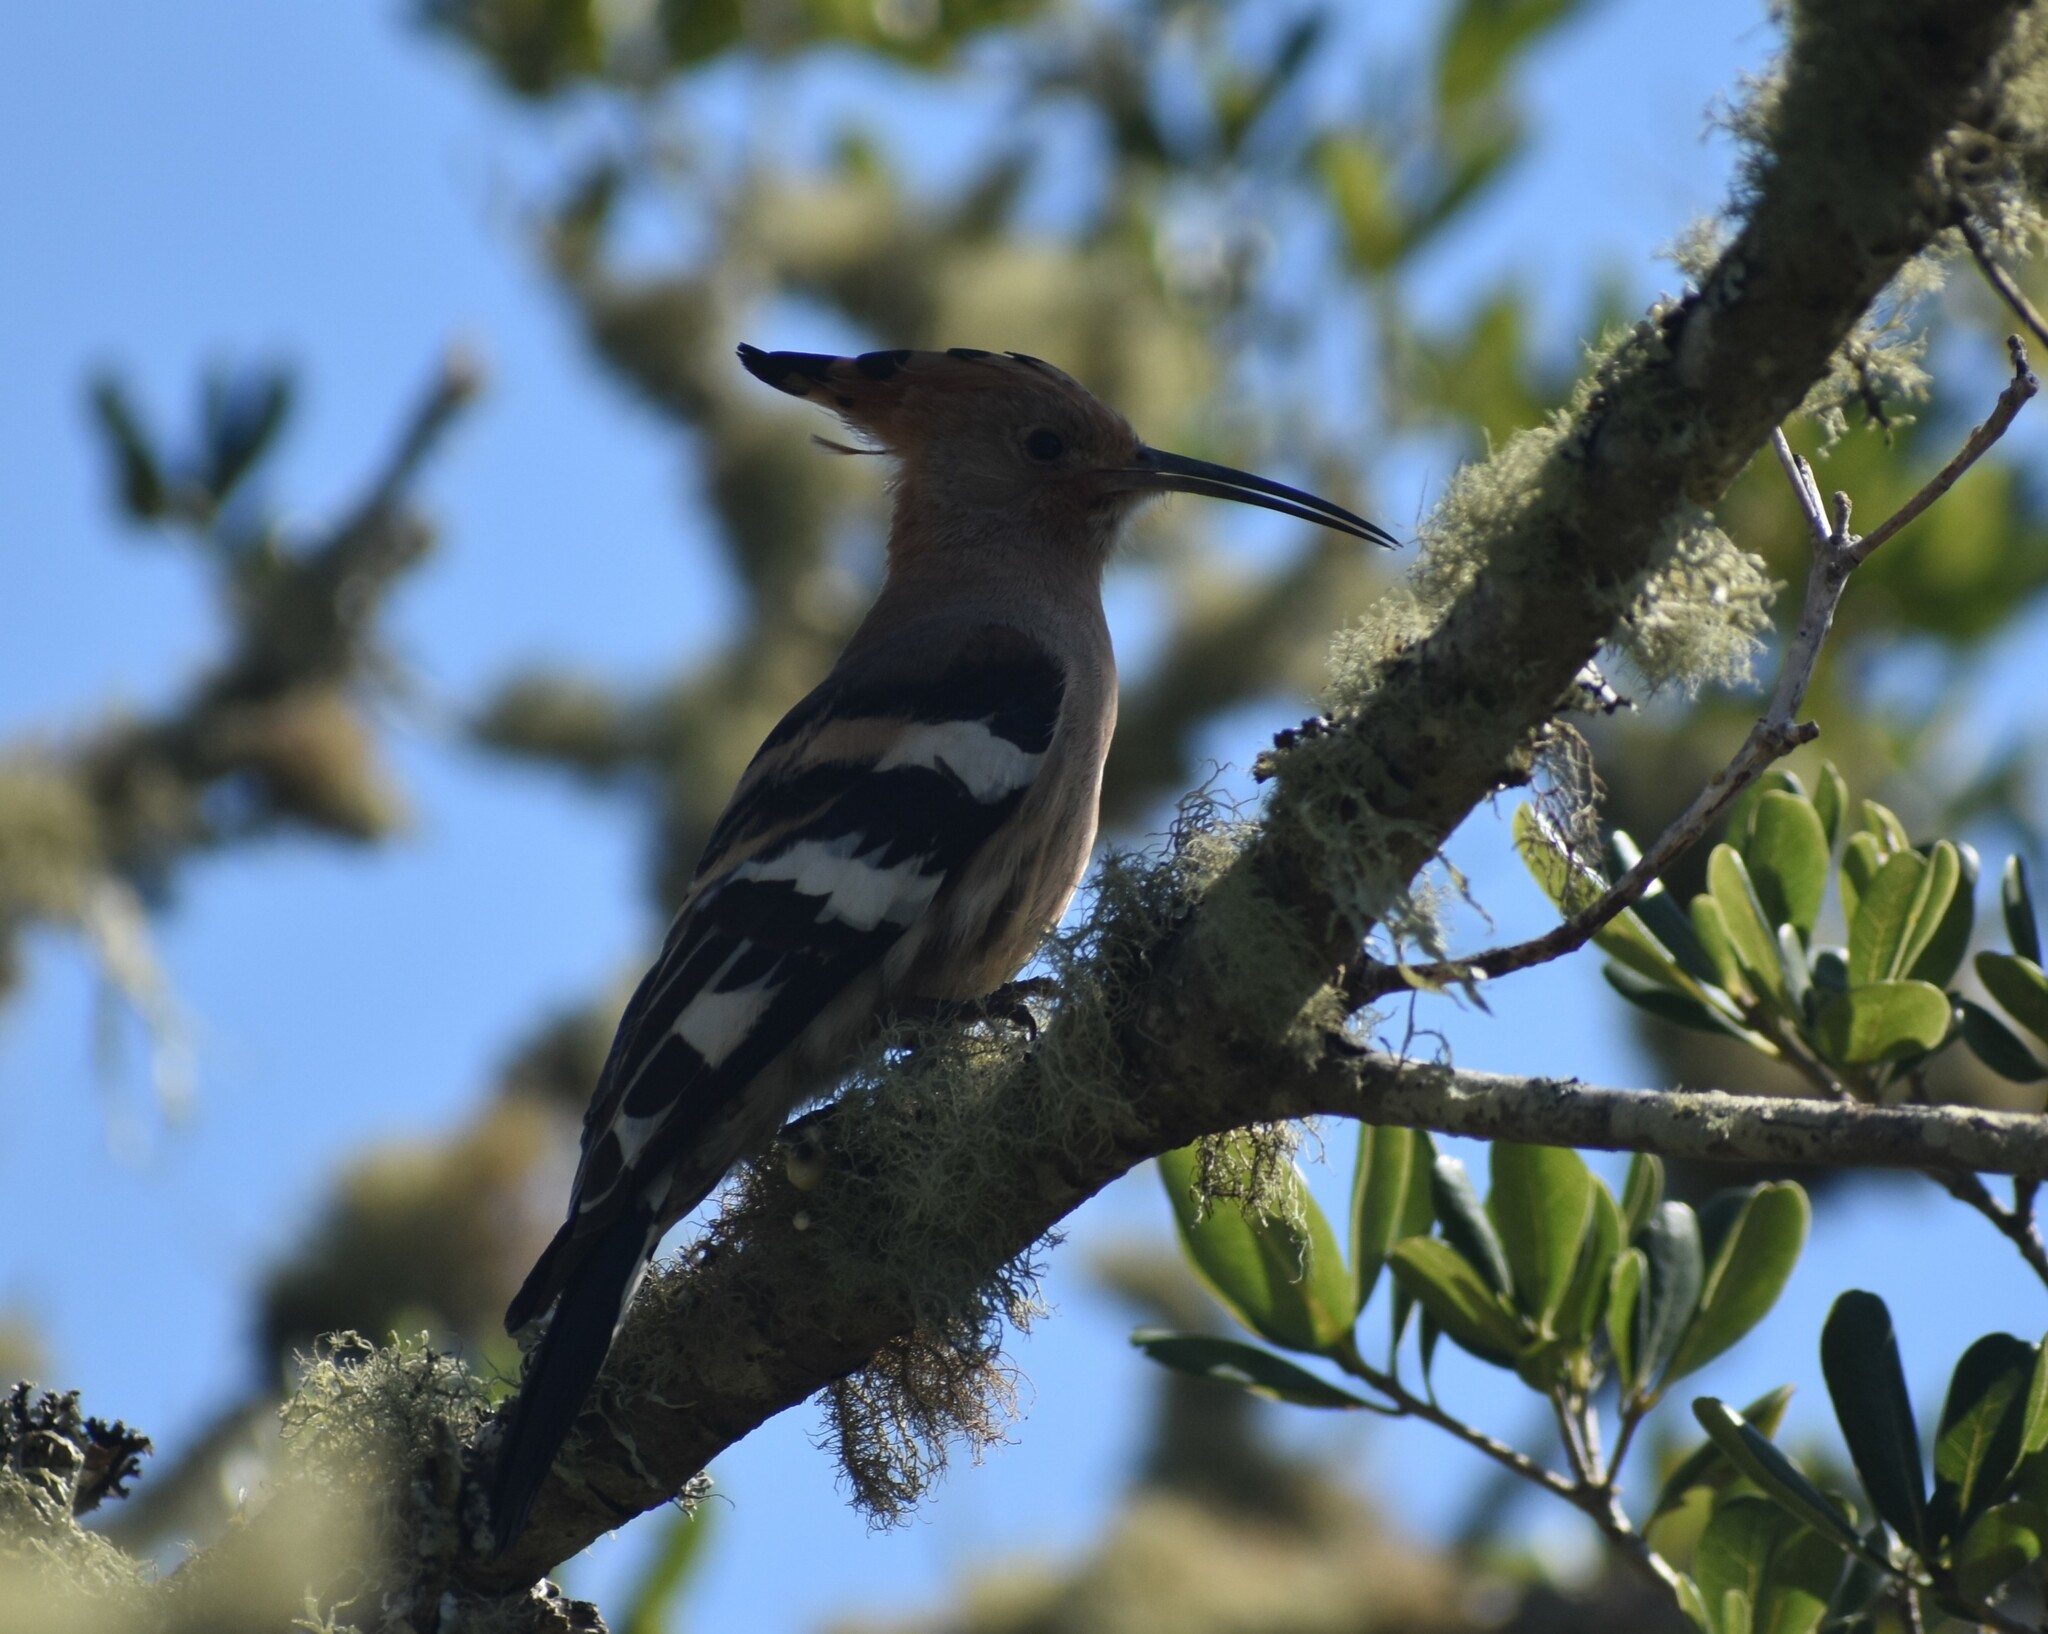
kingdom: Animalia
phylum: Chordata
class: Aves
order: Bucerotiformes
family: Upupidae
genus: Upupa
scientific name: Upupa africana
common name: African hoopoe
